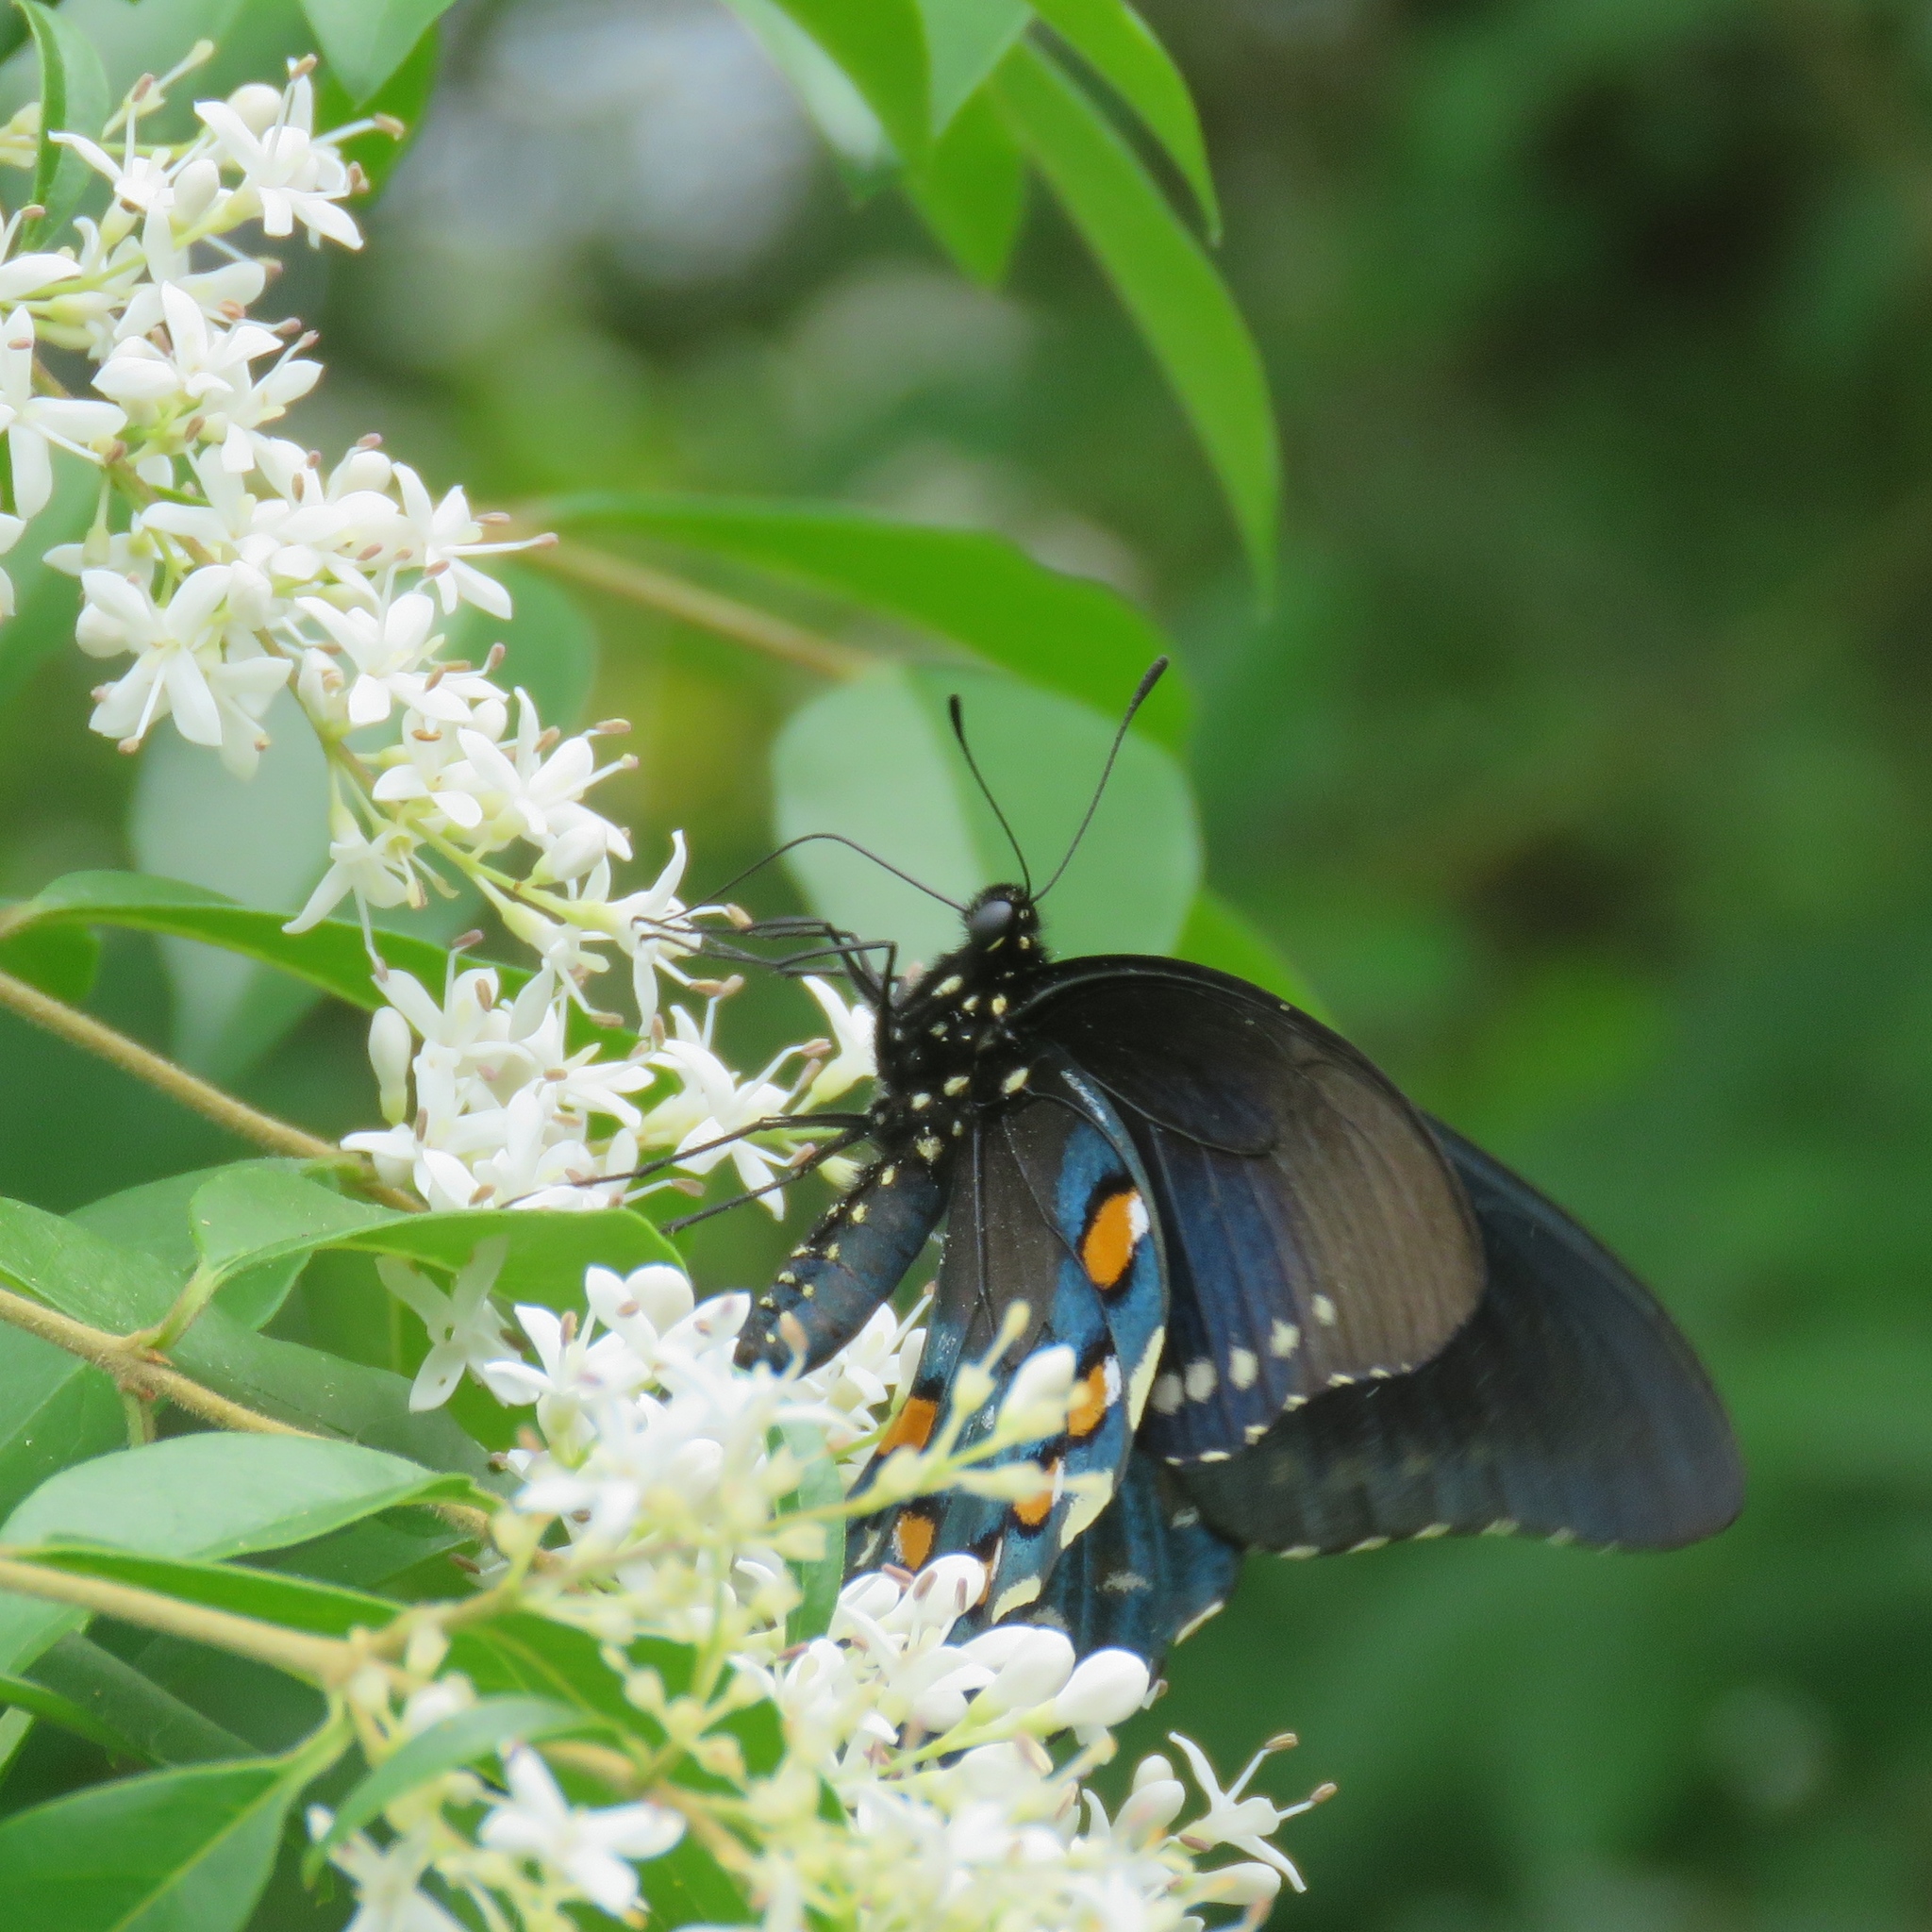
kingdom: Animalia
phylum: Arthropoda
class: Insecta
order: Lepidoptera
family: Papilionidae
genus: Battus
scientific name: Battus philenor
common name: Pipevine swallowtail
